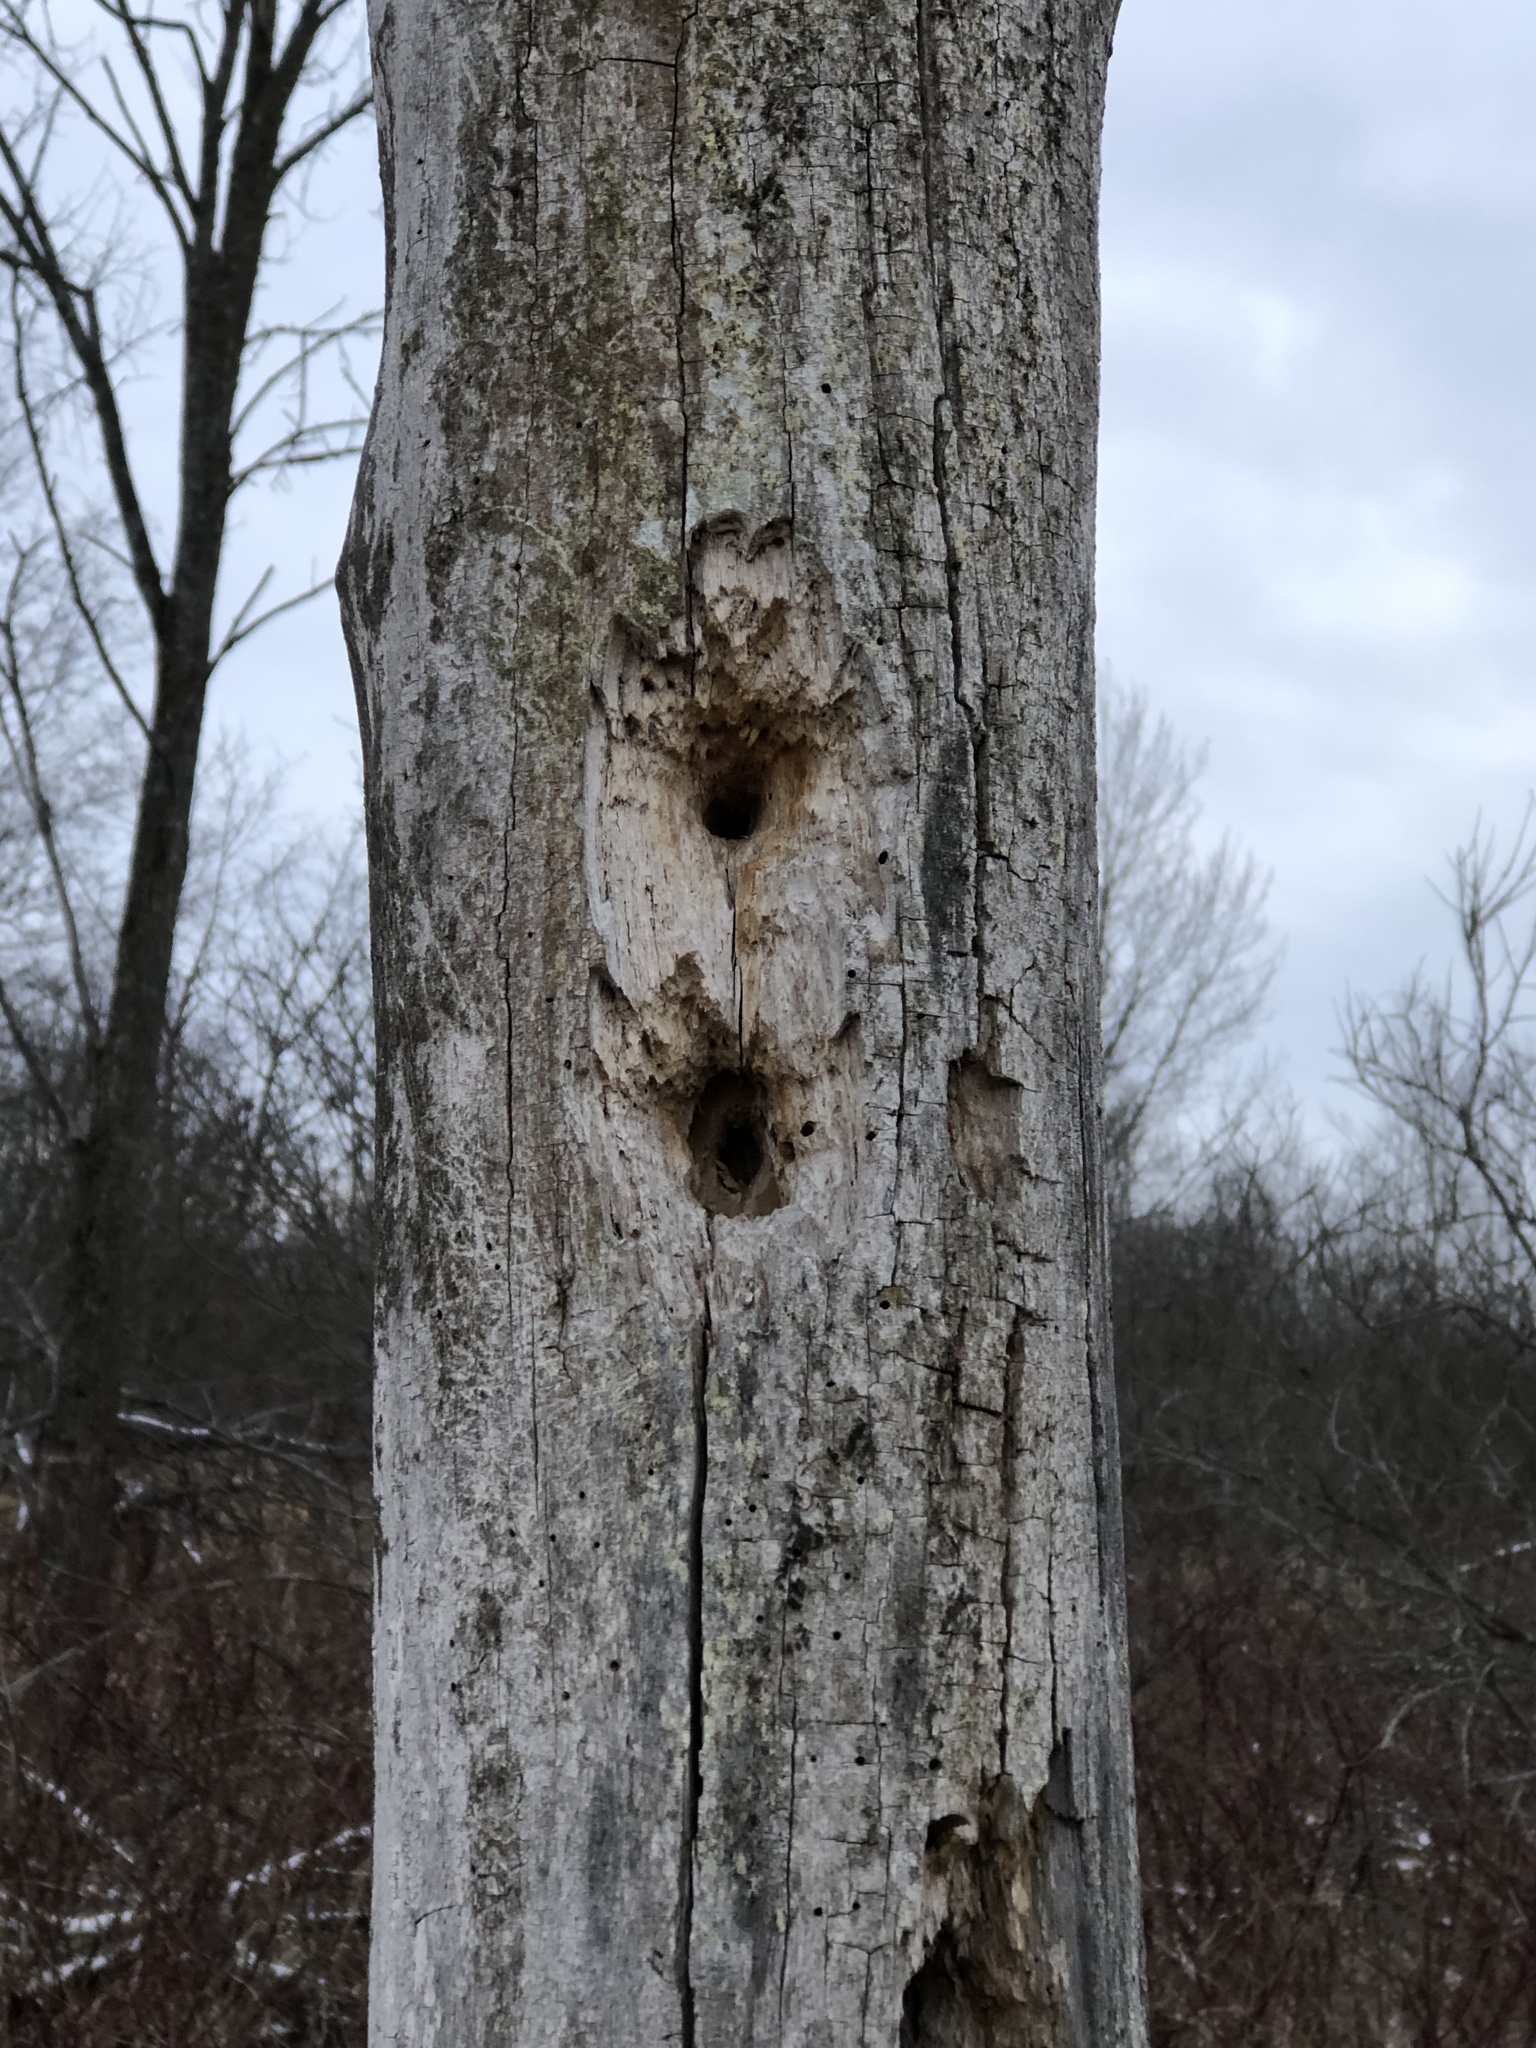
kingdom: Animalia
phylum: Chordata
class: Aves
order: Piciformes
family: Picidae
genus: Dryocopus
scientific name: Dryocopus pileatus
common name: Pileated woodpecker
